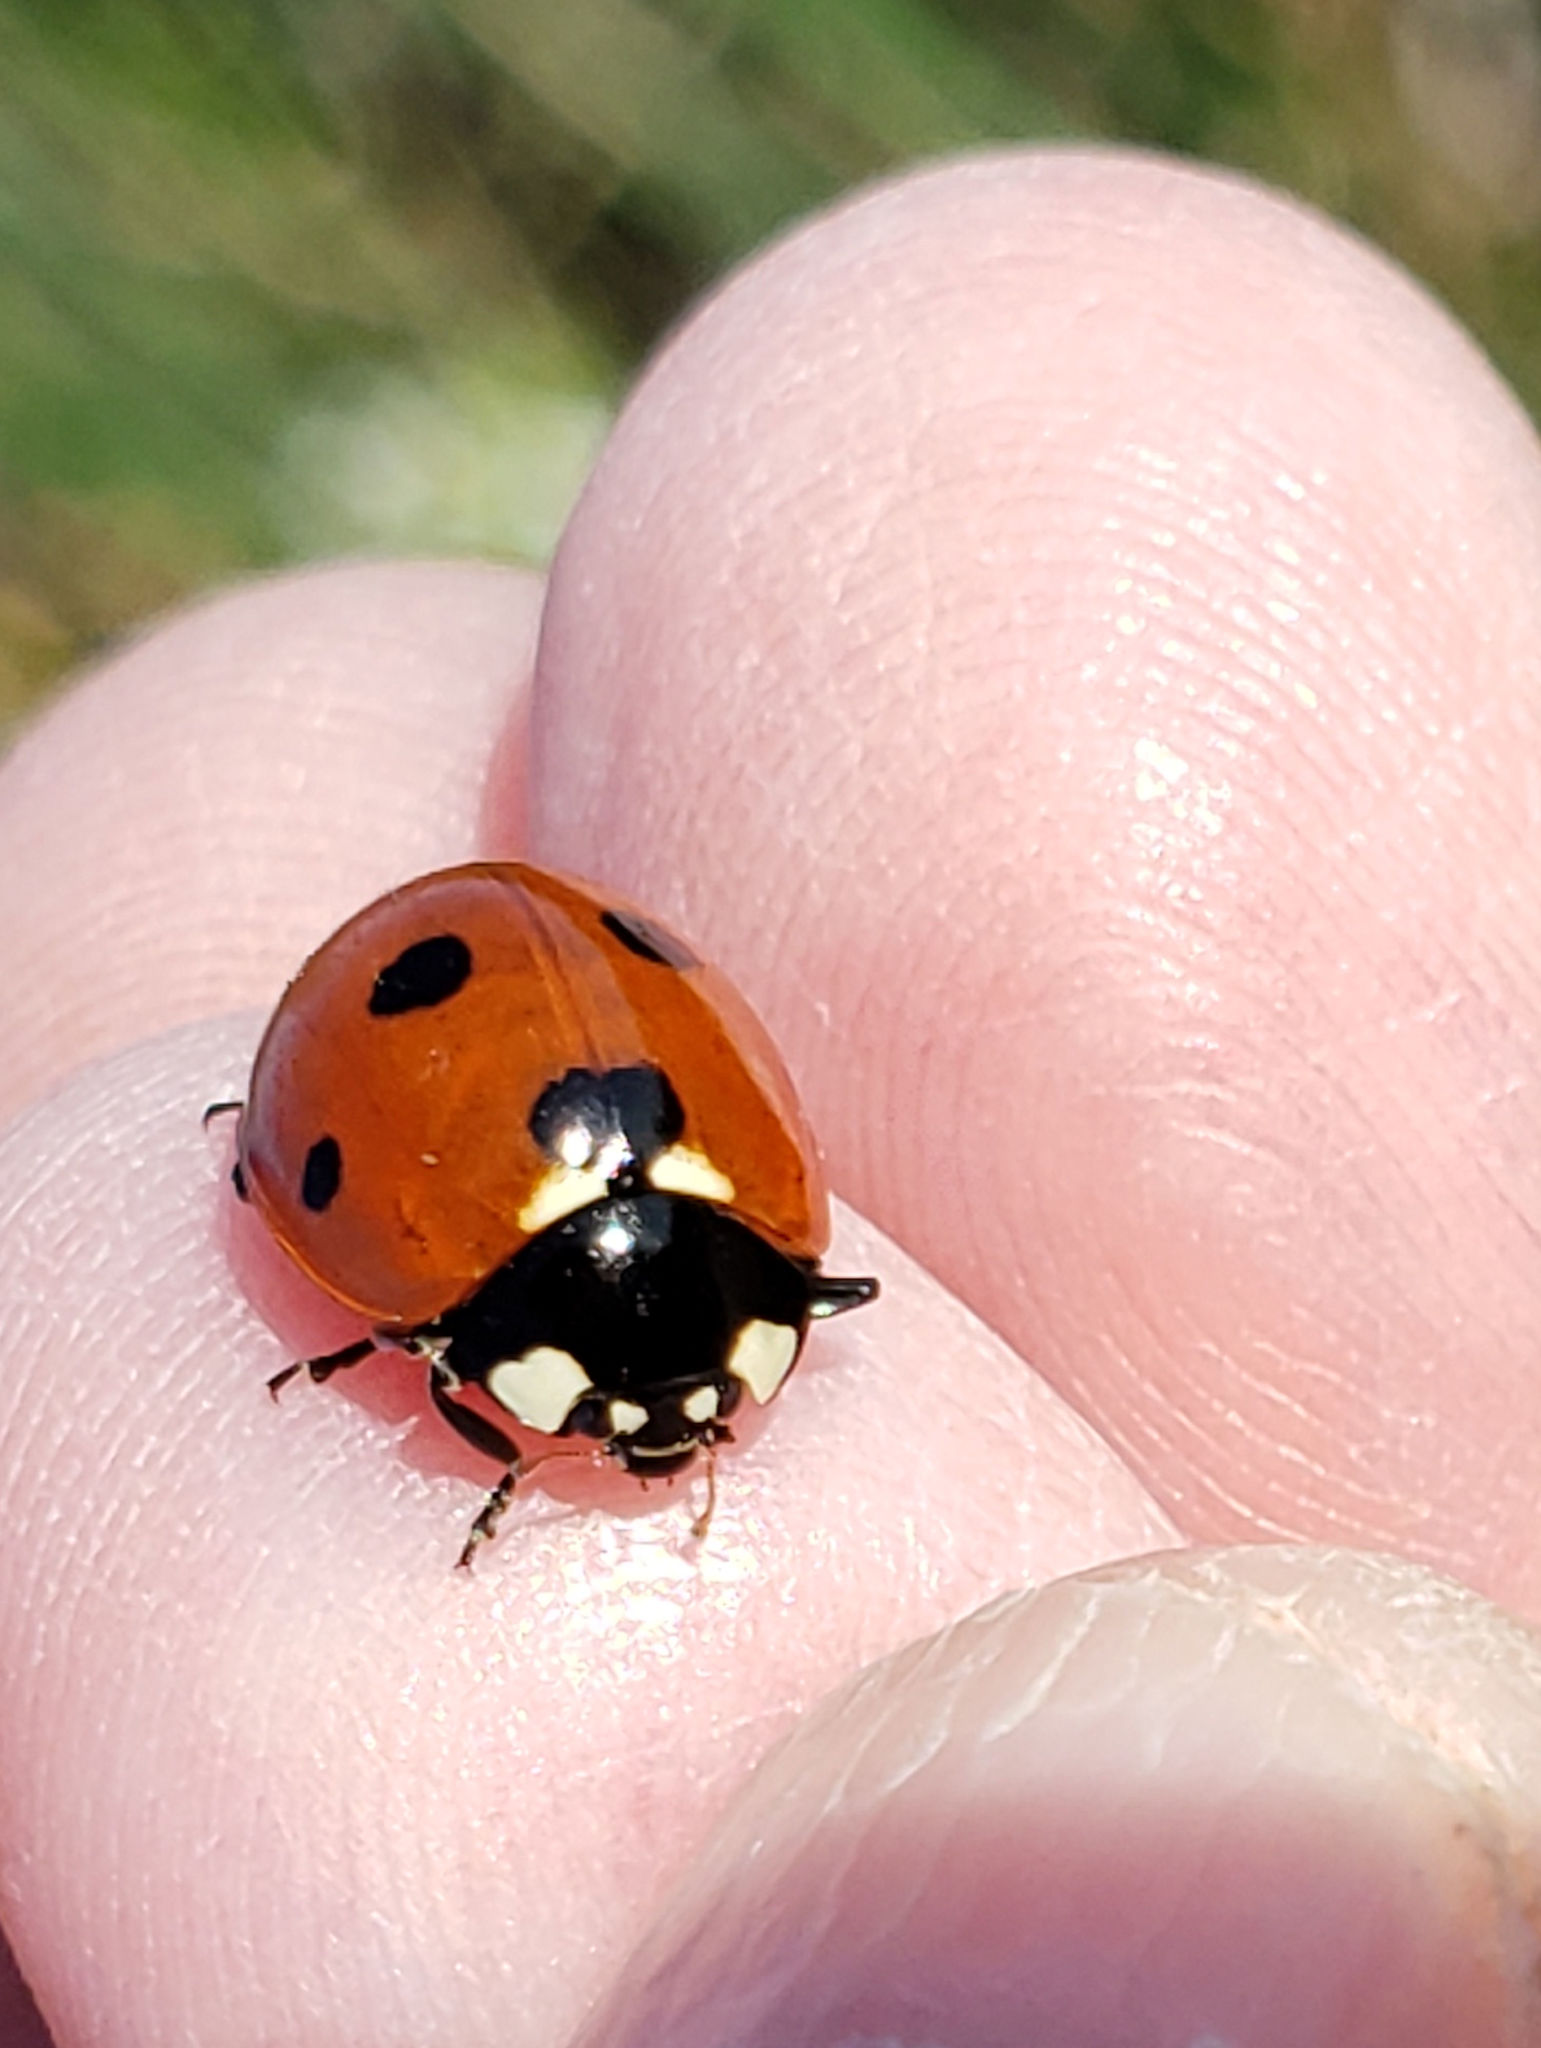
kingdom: Animalia
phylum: Arthropoda
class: Insecta
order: Coleoptera
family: Coccinellidae
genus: Coccinella
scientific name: Coccinella septempunctata
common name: Sevenspotted lady beetle
